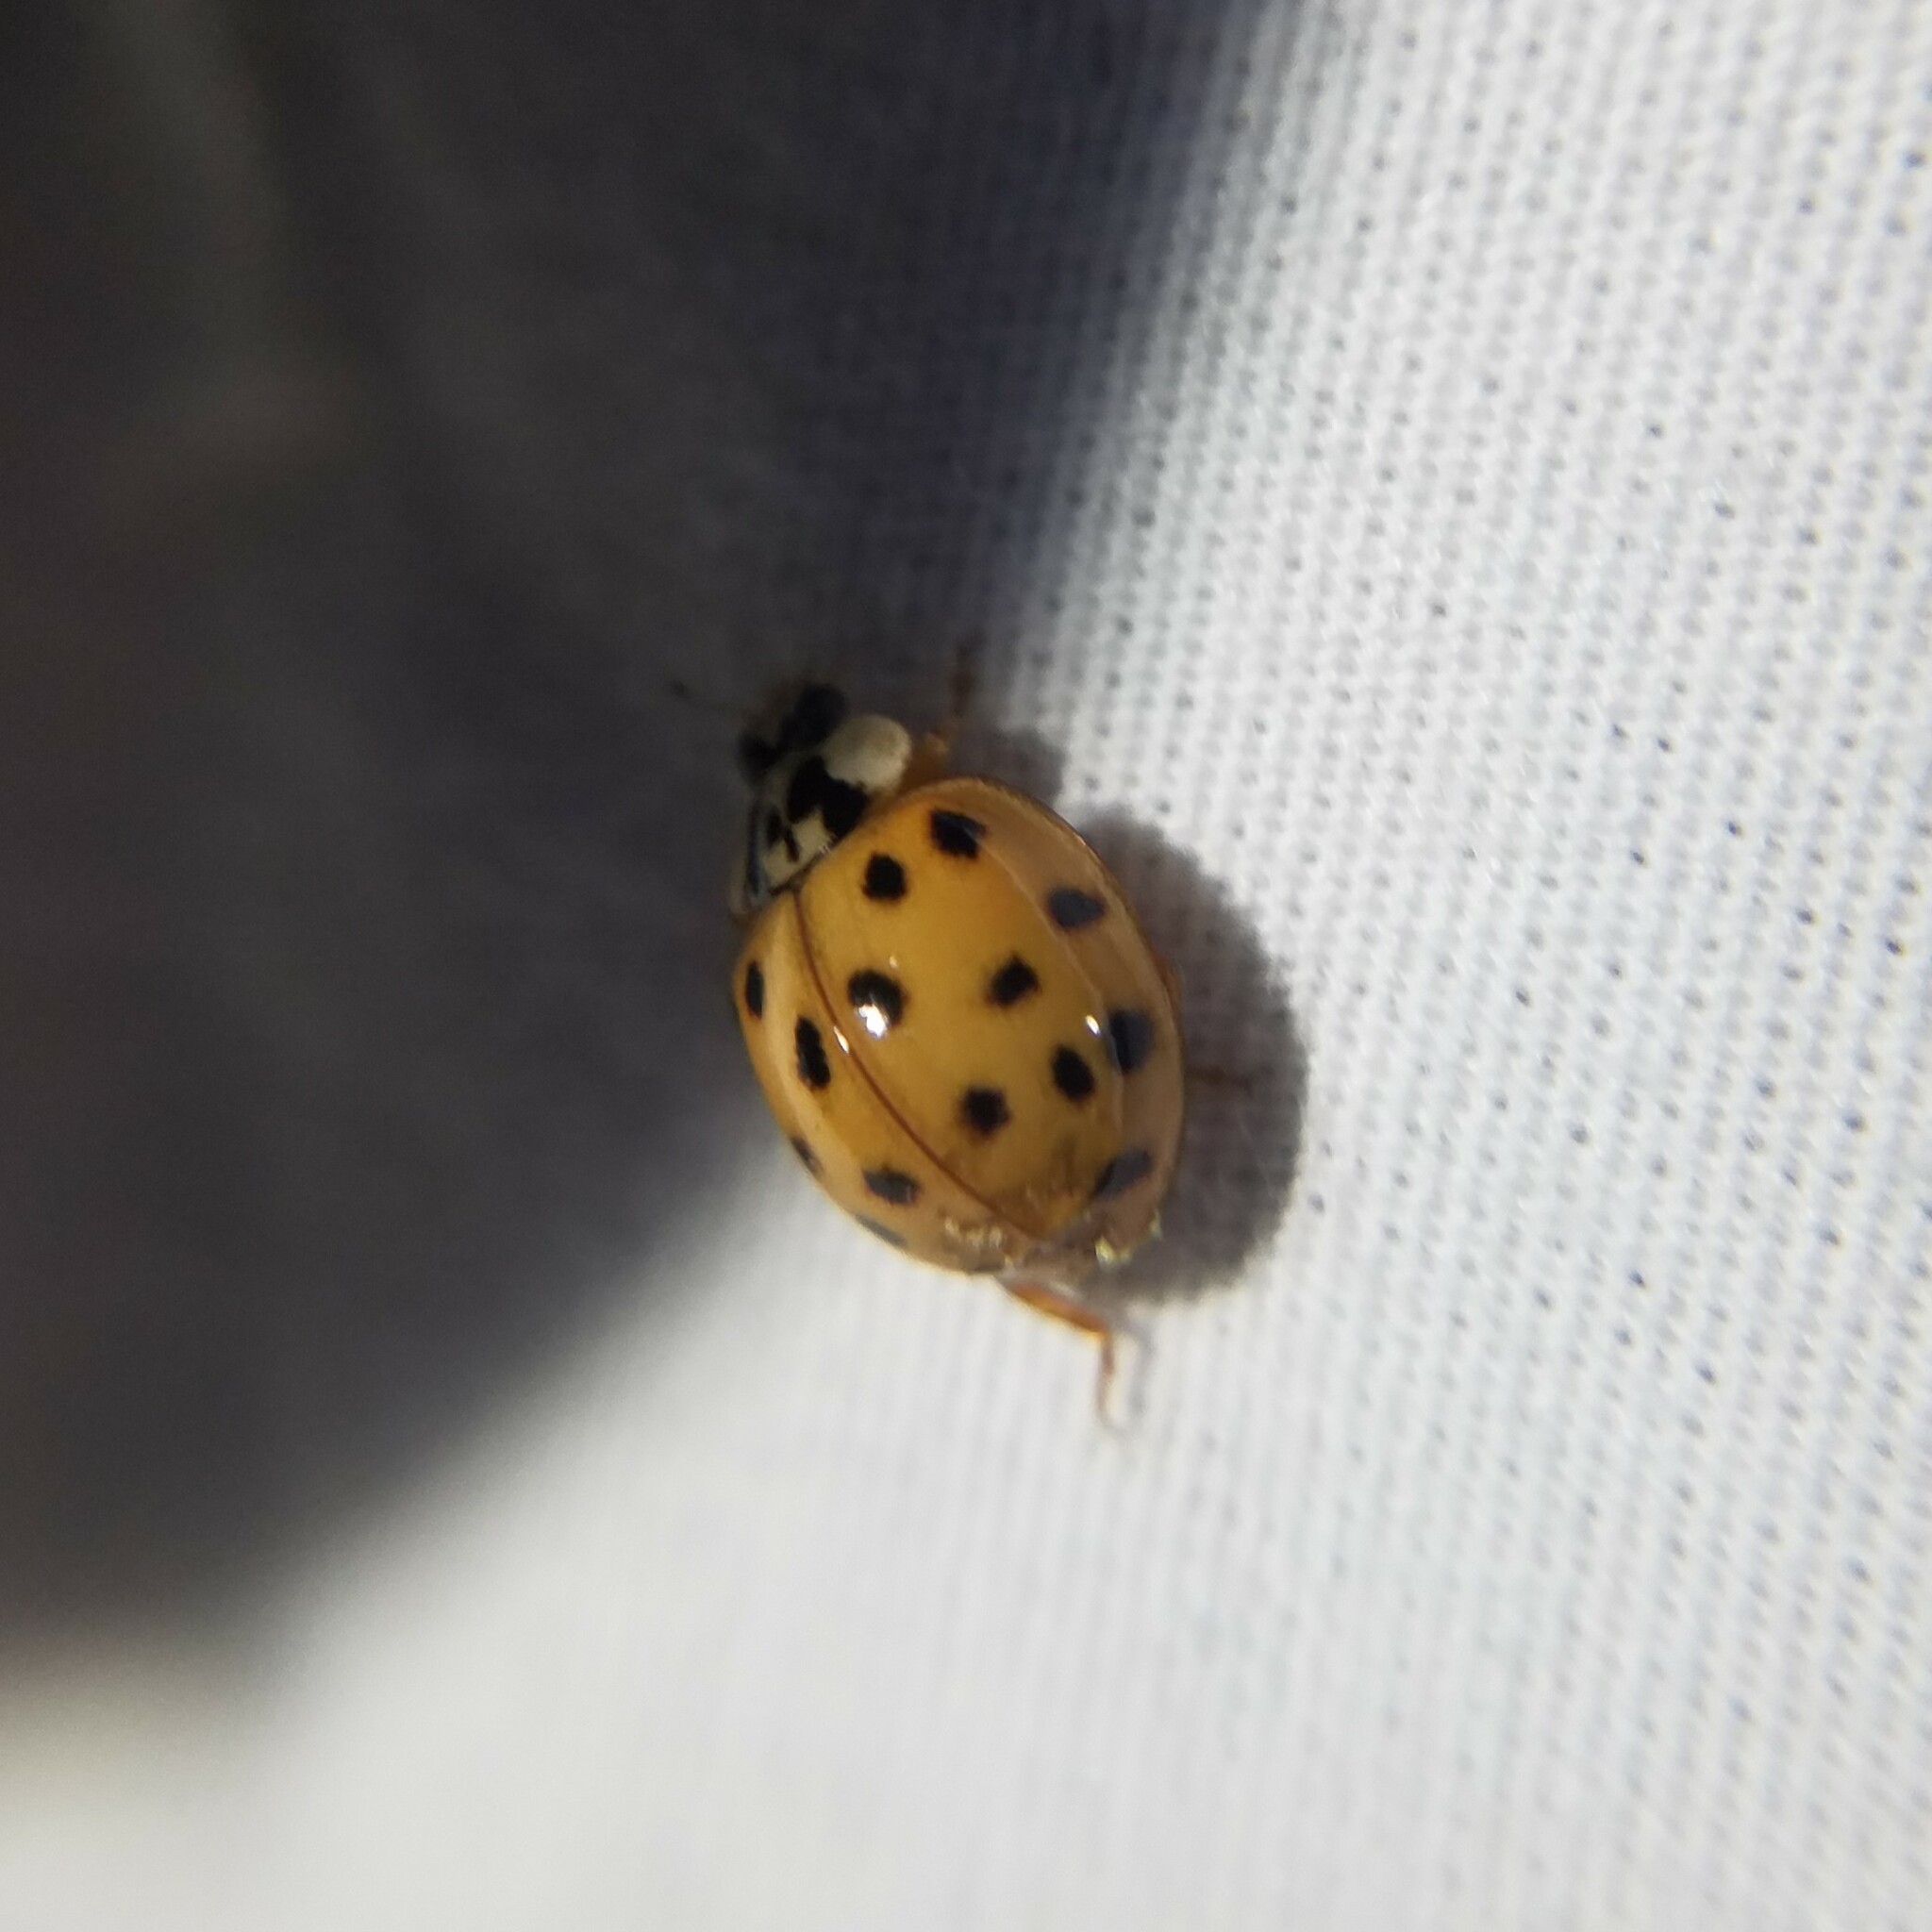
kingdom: Fungi
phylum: Ascomycota
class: Laboulbeniomycetes
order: Laboulbeniales
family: Laboulbeniaceae
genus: Hesperomyces
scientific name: Hesperomyces harmoniae
